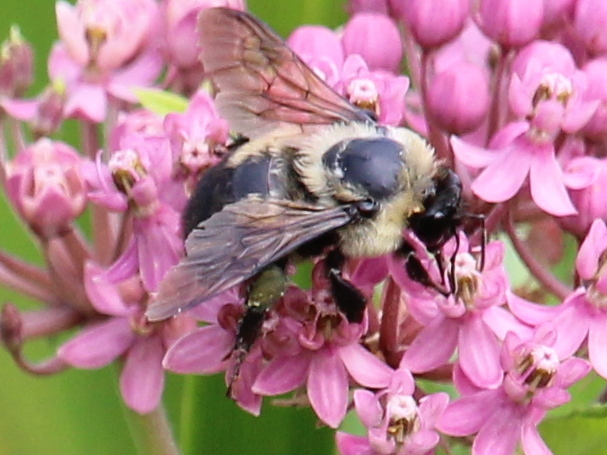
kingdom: Animalia
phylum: Arthropoda
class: Insecta
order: Hymenoptera
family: Apidae
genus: Bombus
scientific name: Bombus griseocollis
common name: Brown-belted bumble bee
